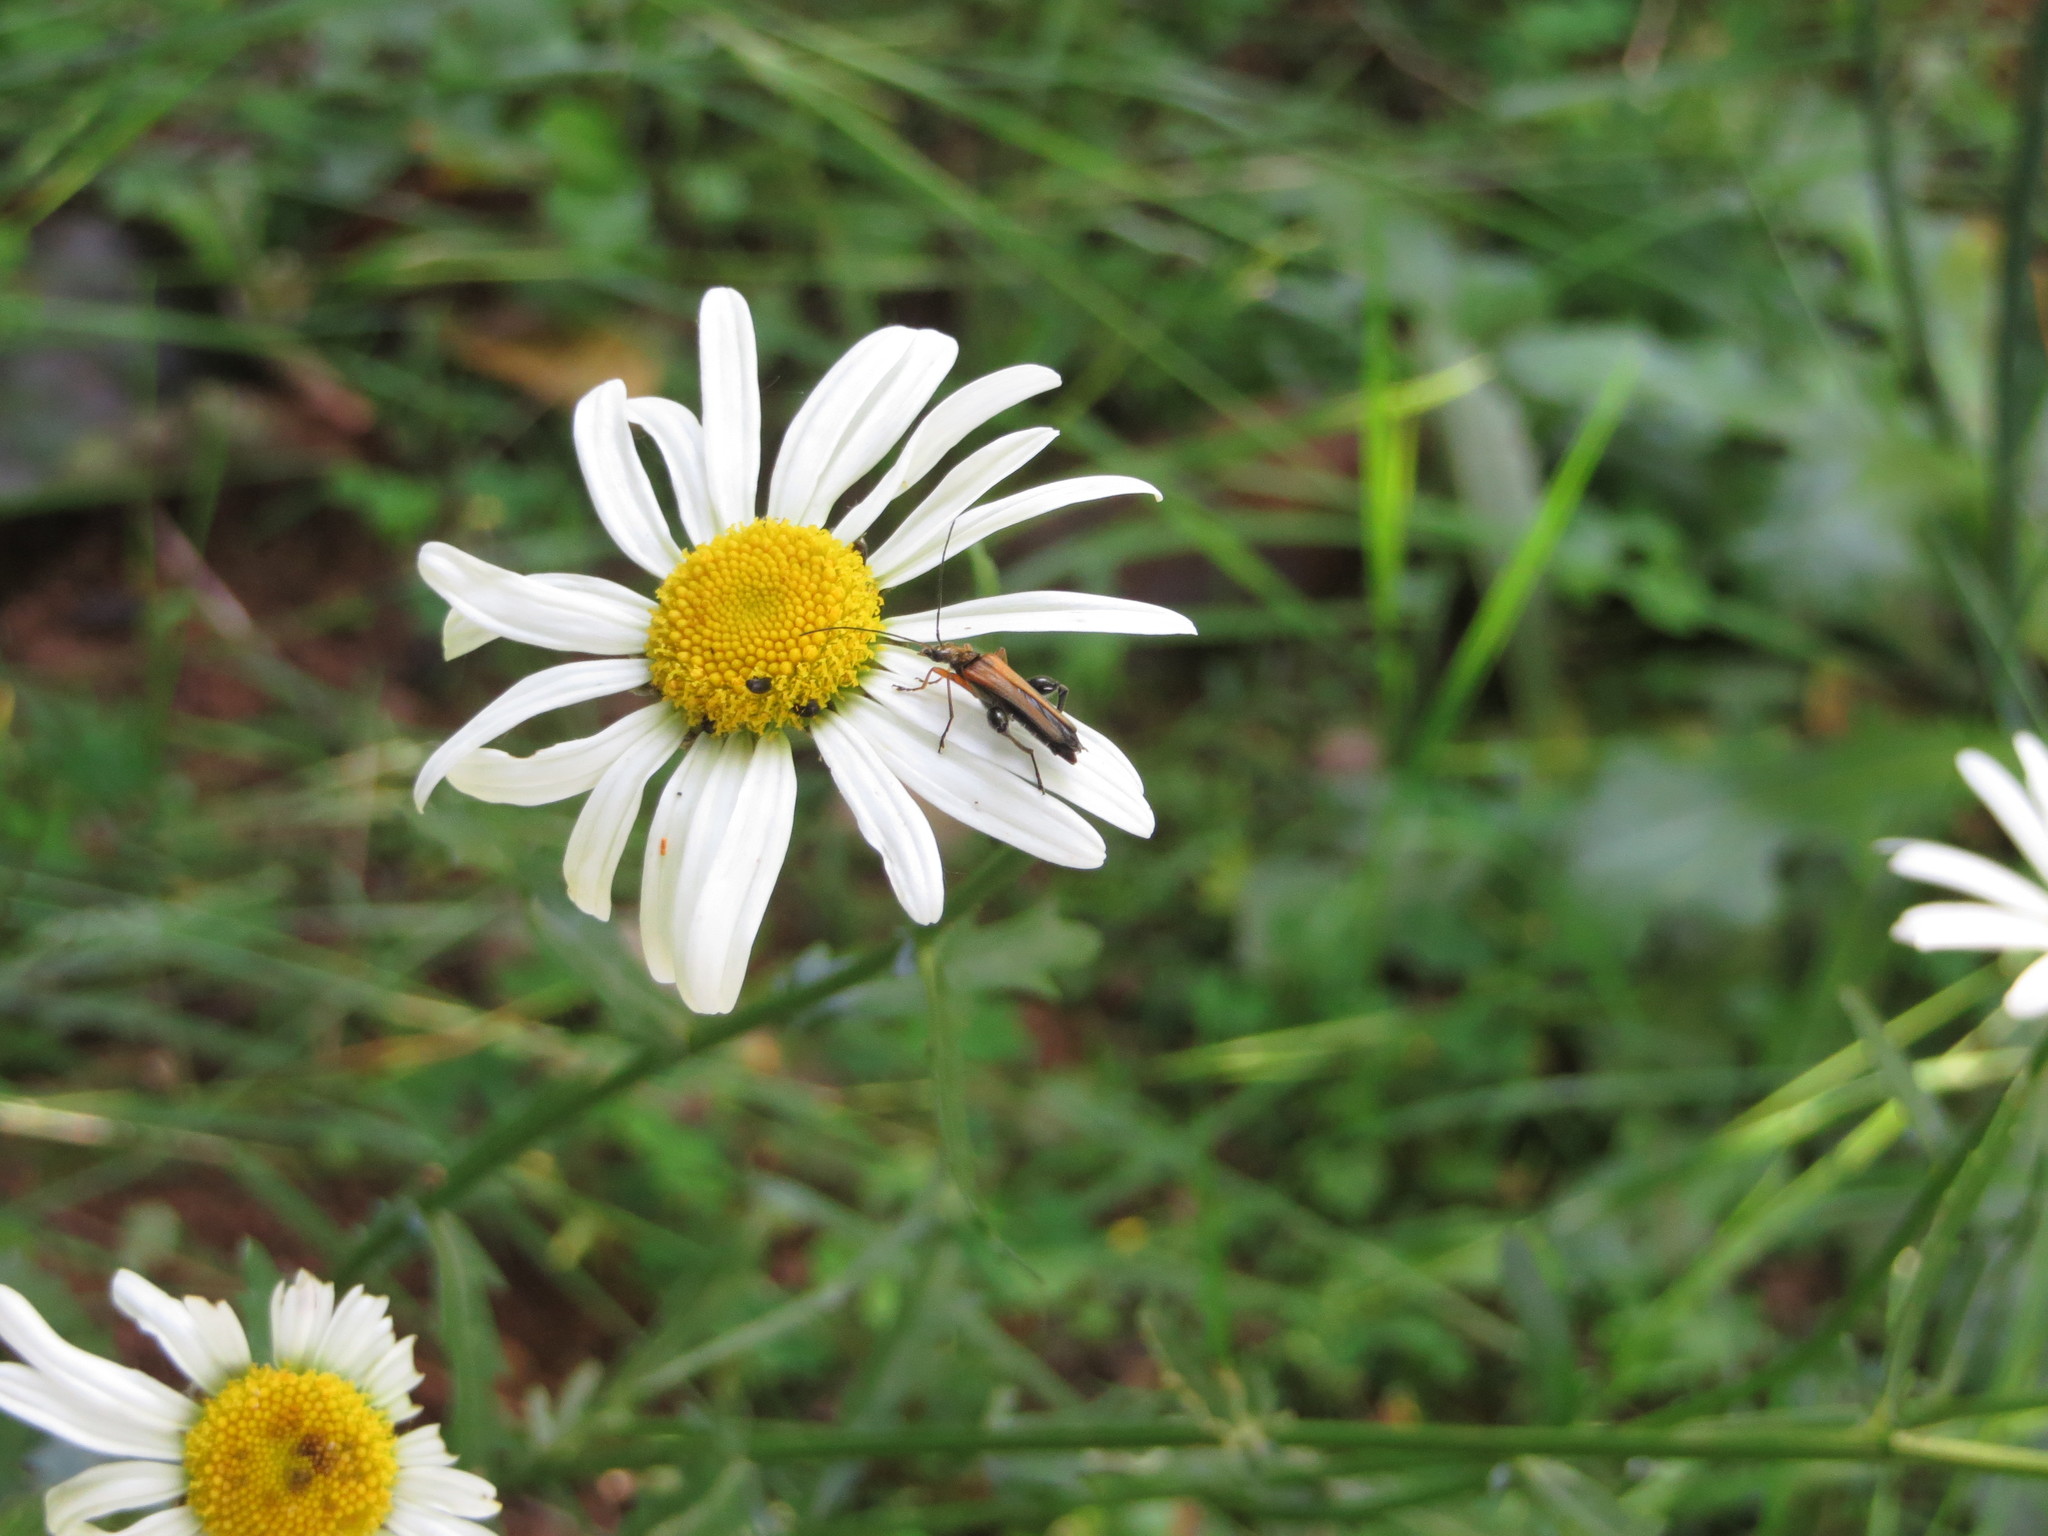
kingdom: Animalia
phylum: Arthropoda
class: Insecta
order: Coleoptera
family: Oedemeridae
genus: Oedemera
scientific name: Oedemera podagrariae
